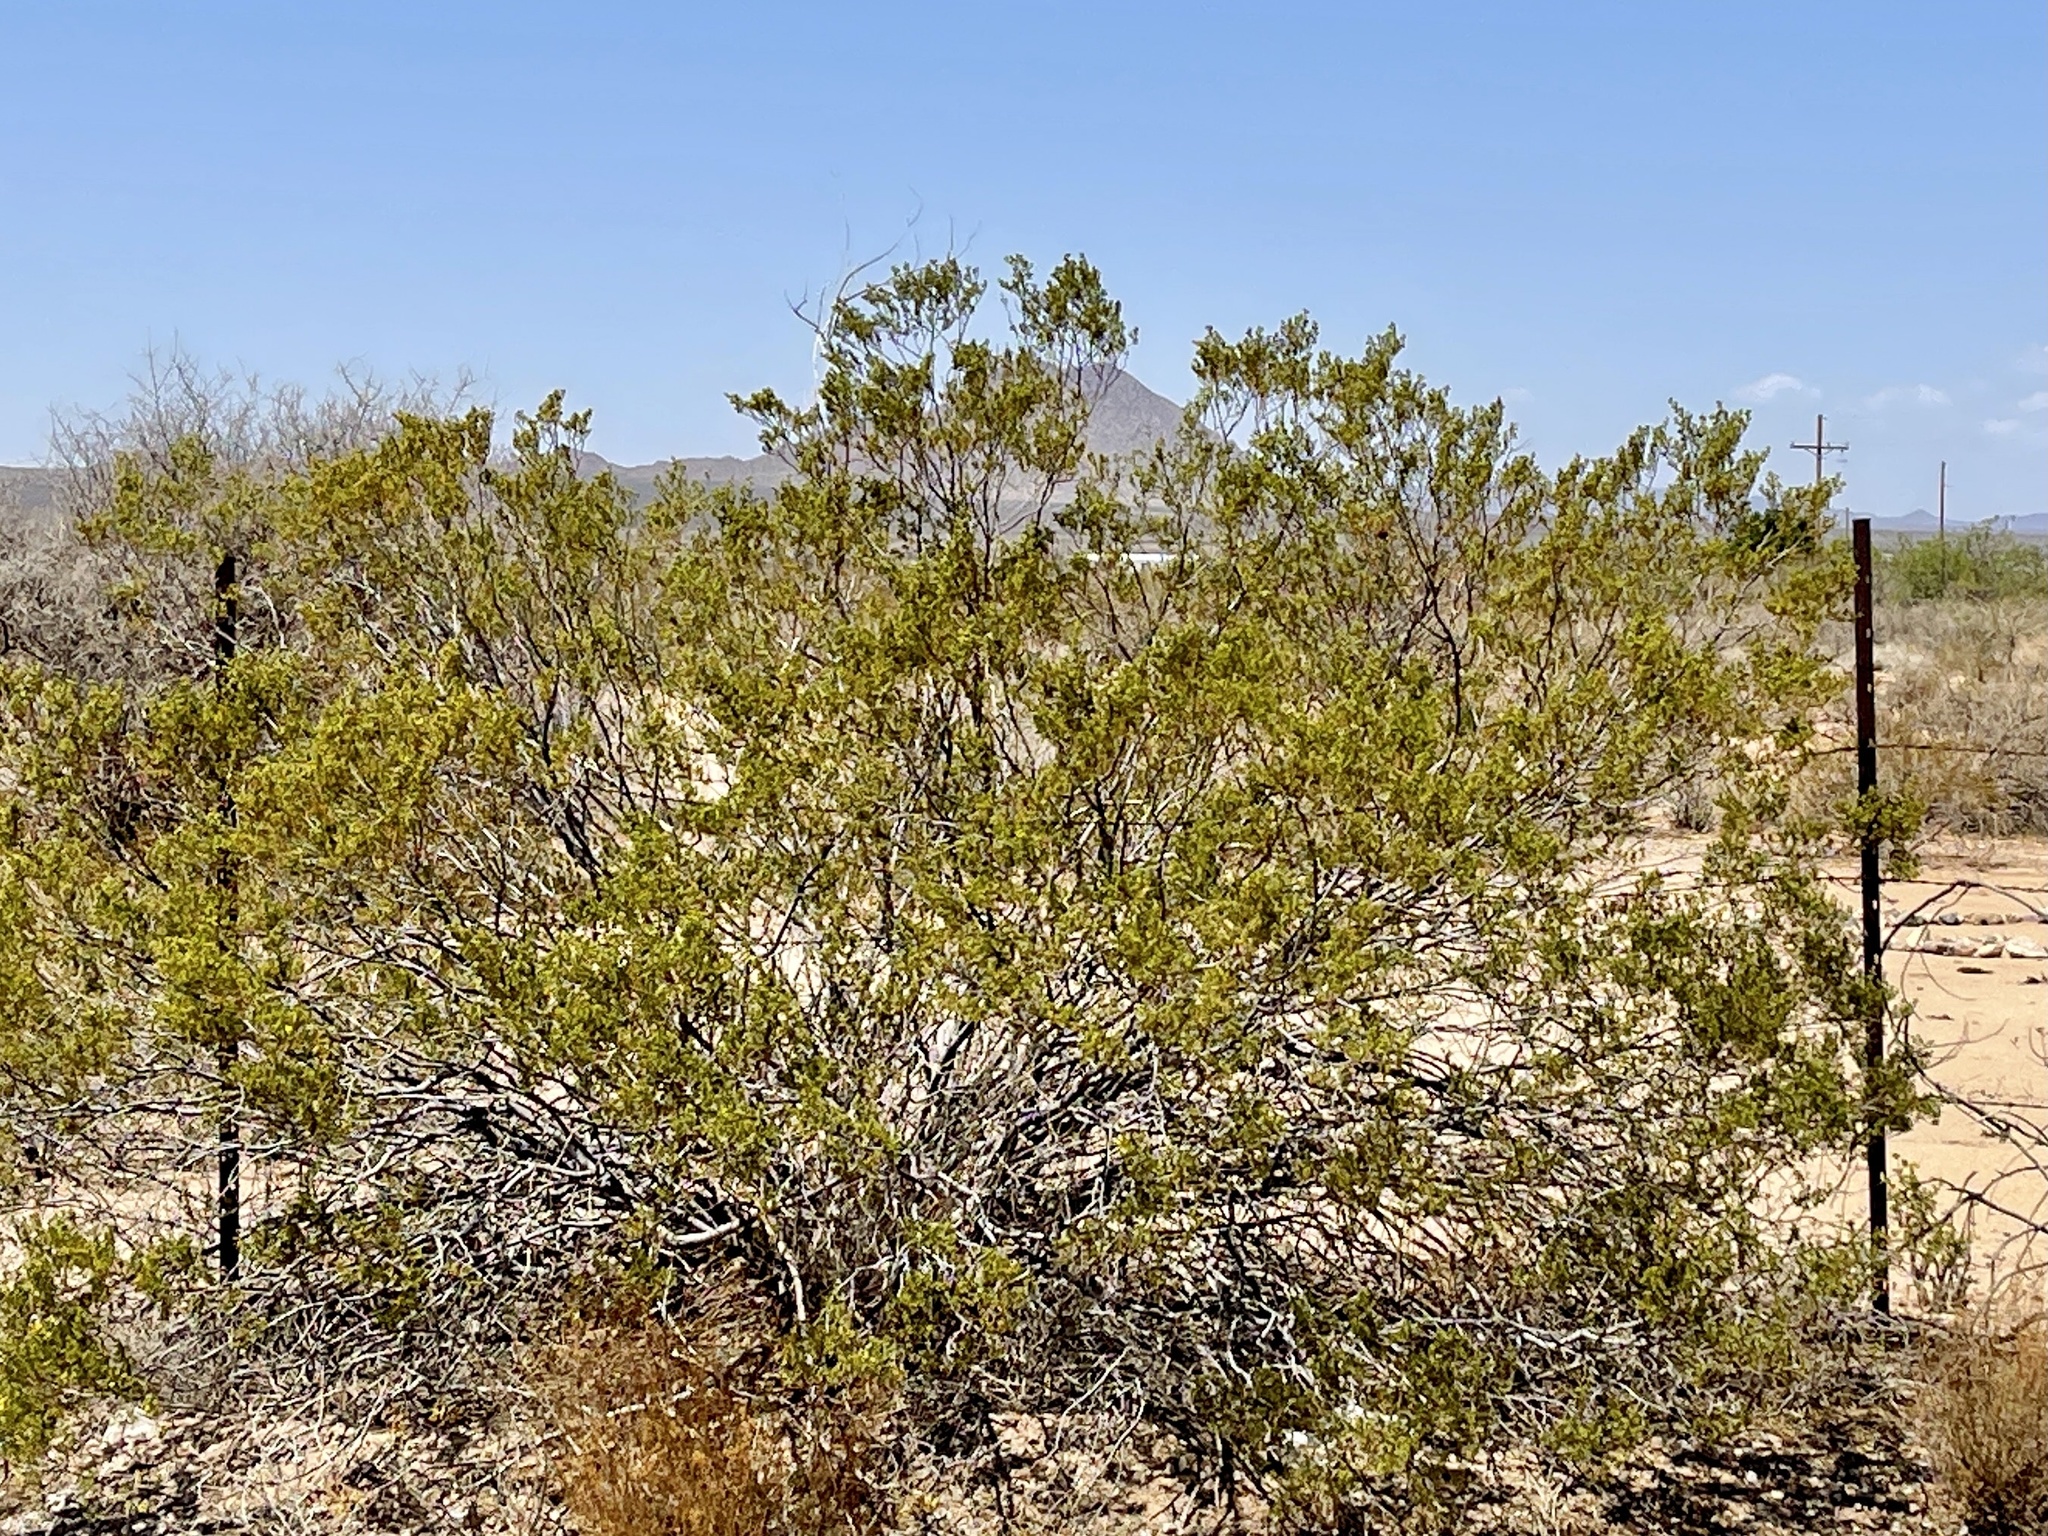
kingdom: Plantae
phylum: Tracheophyta
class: Magnoliopsida
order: Zygophyllales
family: Zygophyllaceae
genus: Larrea
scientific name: Larrea tridentata
